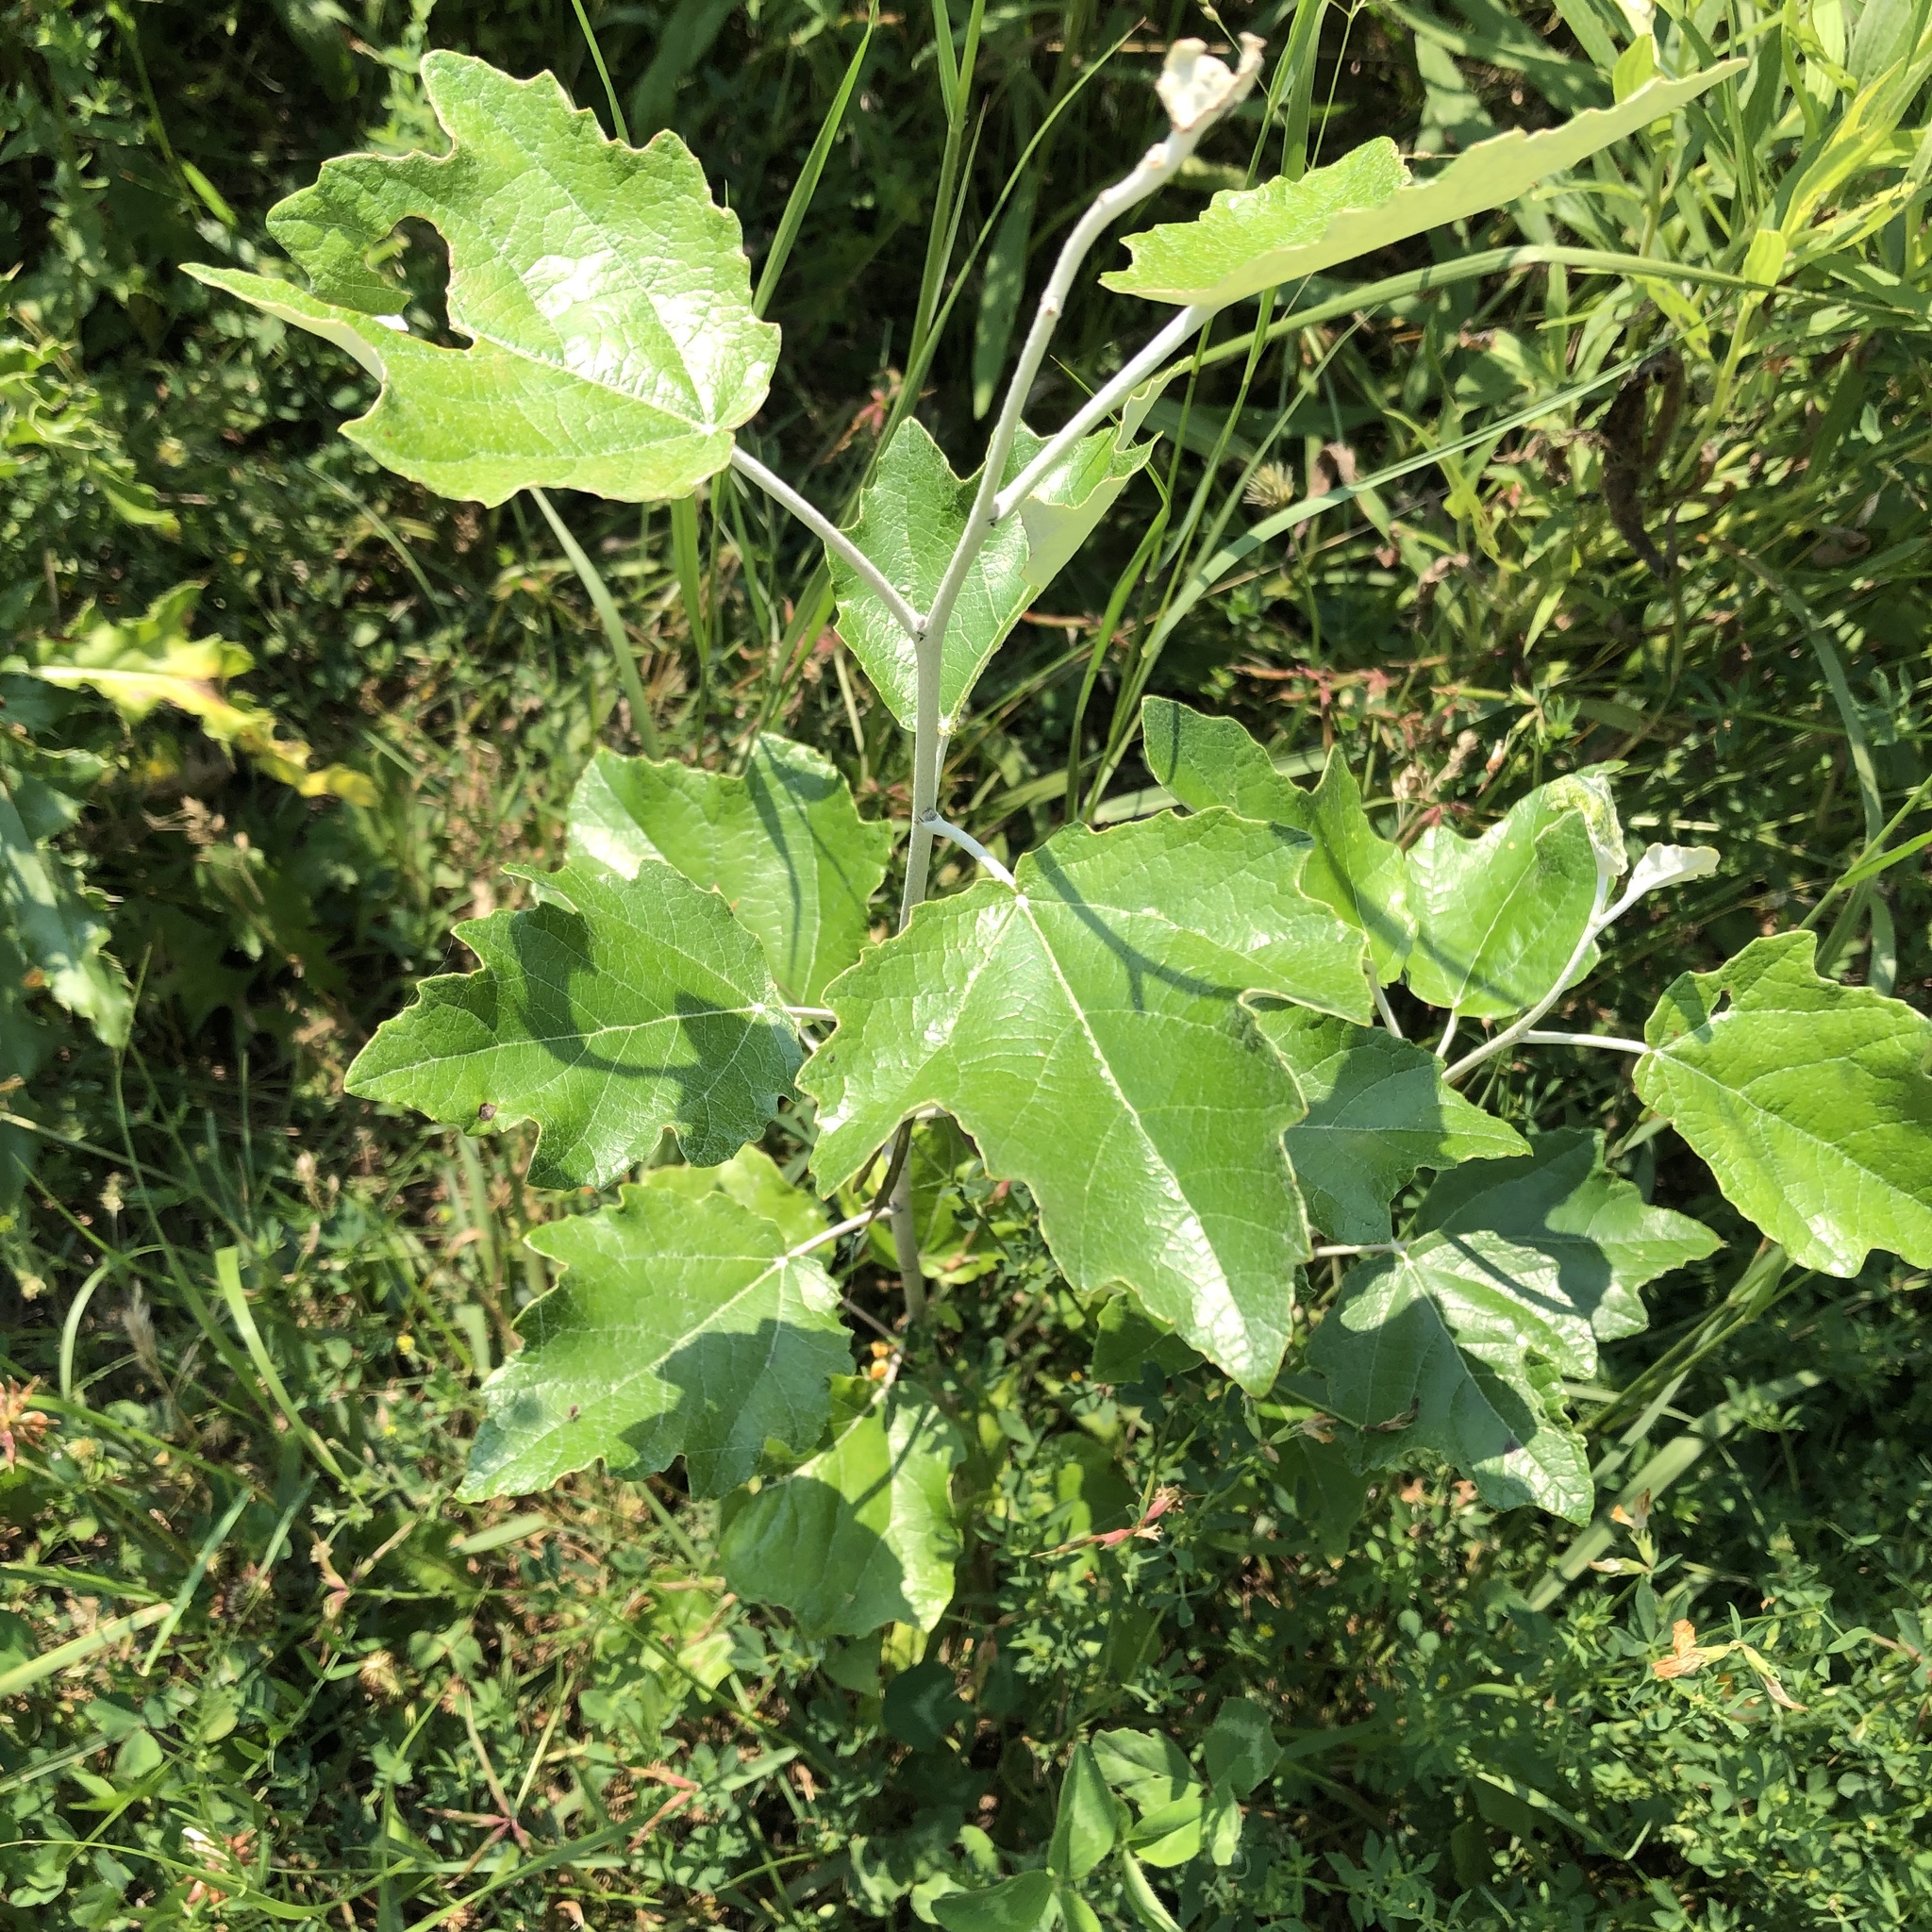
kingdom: Plantae
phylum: Tracheophyta
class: Magnoliopsida
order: Malpighiales
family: Salicaceae
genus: Populus
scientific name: Populus alba
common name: White poplar
